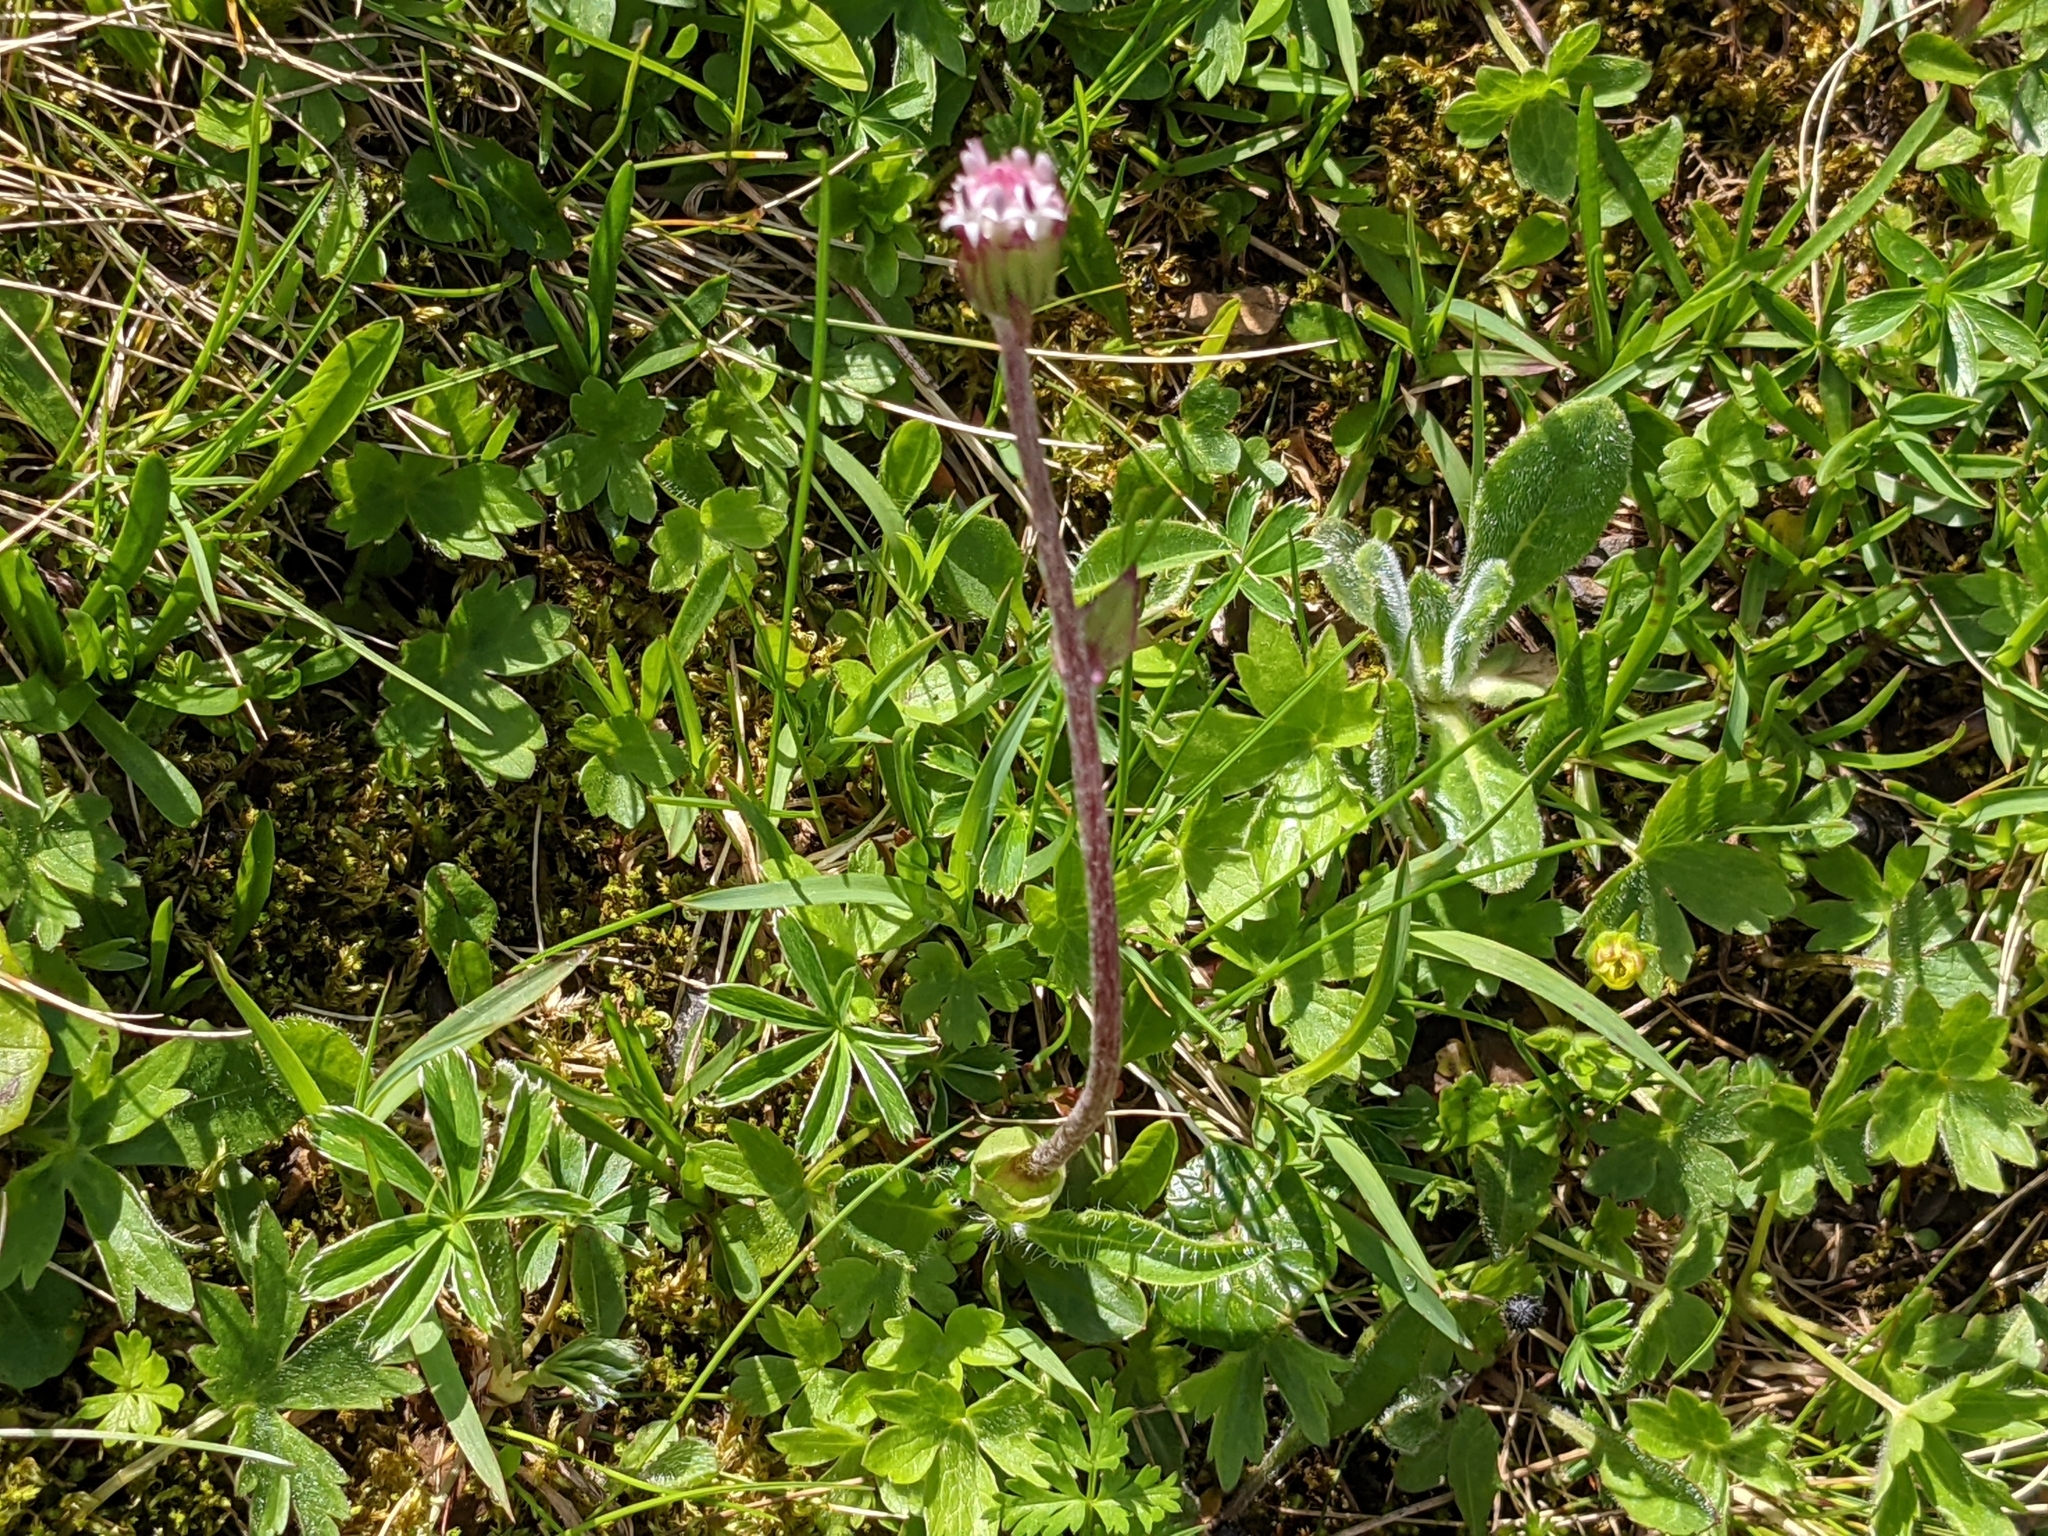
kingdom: Plantae
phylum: Tracheophyta
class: Magnoliopsida
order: Asterales
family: Asteraceae
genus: Homogyne
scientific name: Homogyne alpina
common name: Purple colt's-foot
